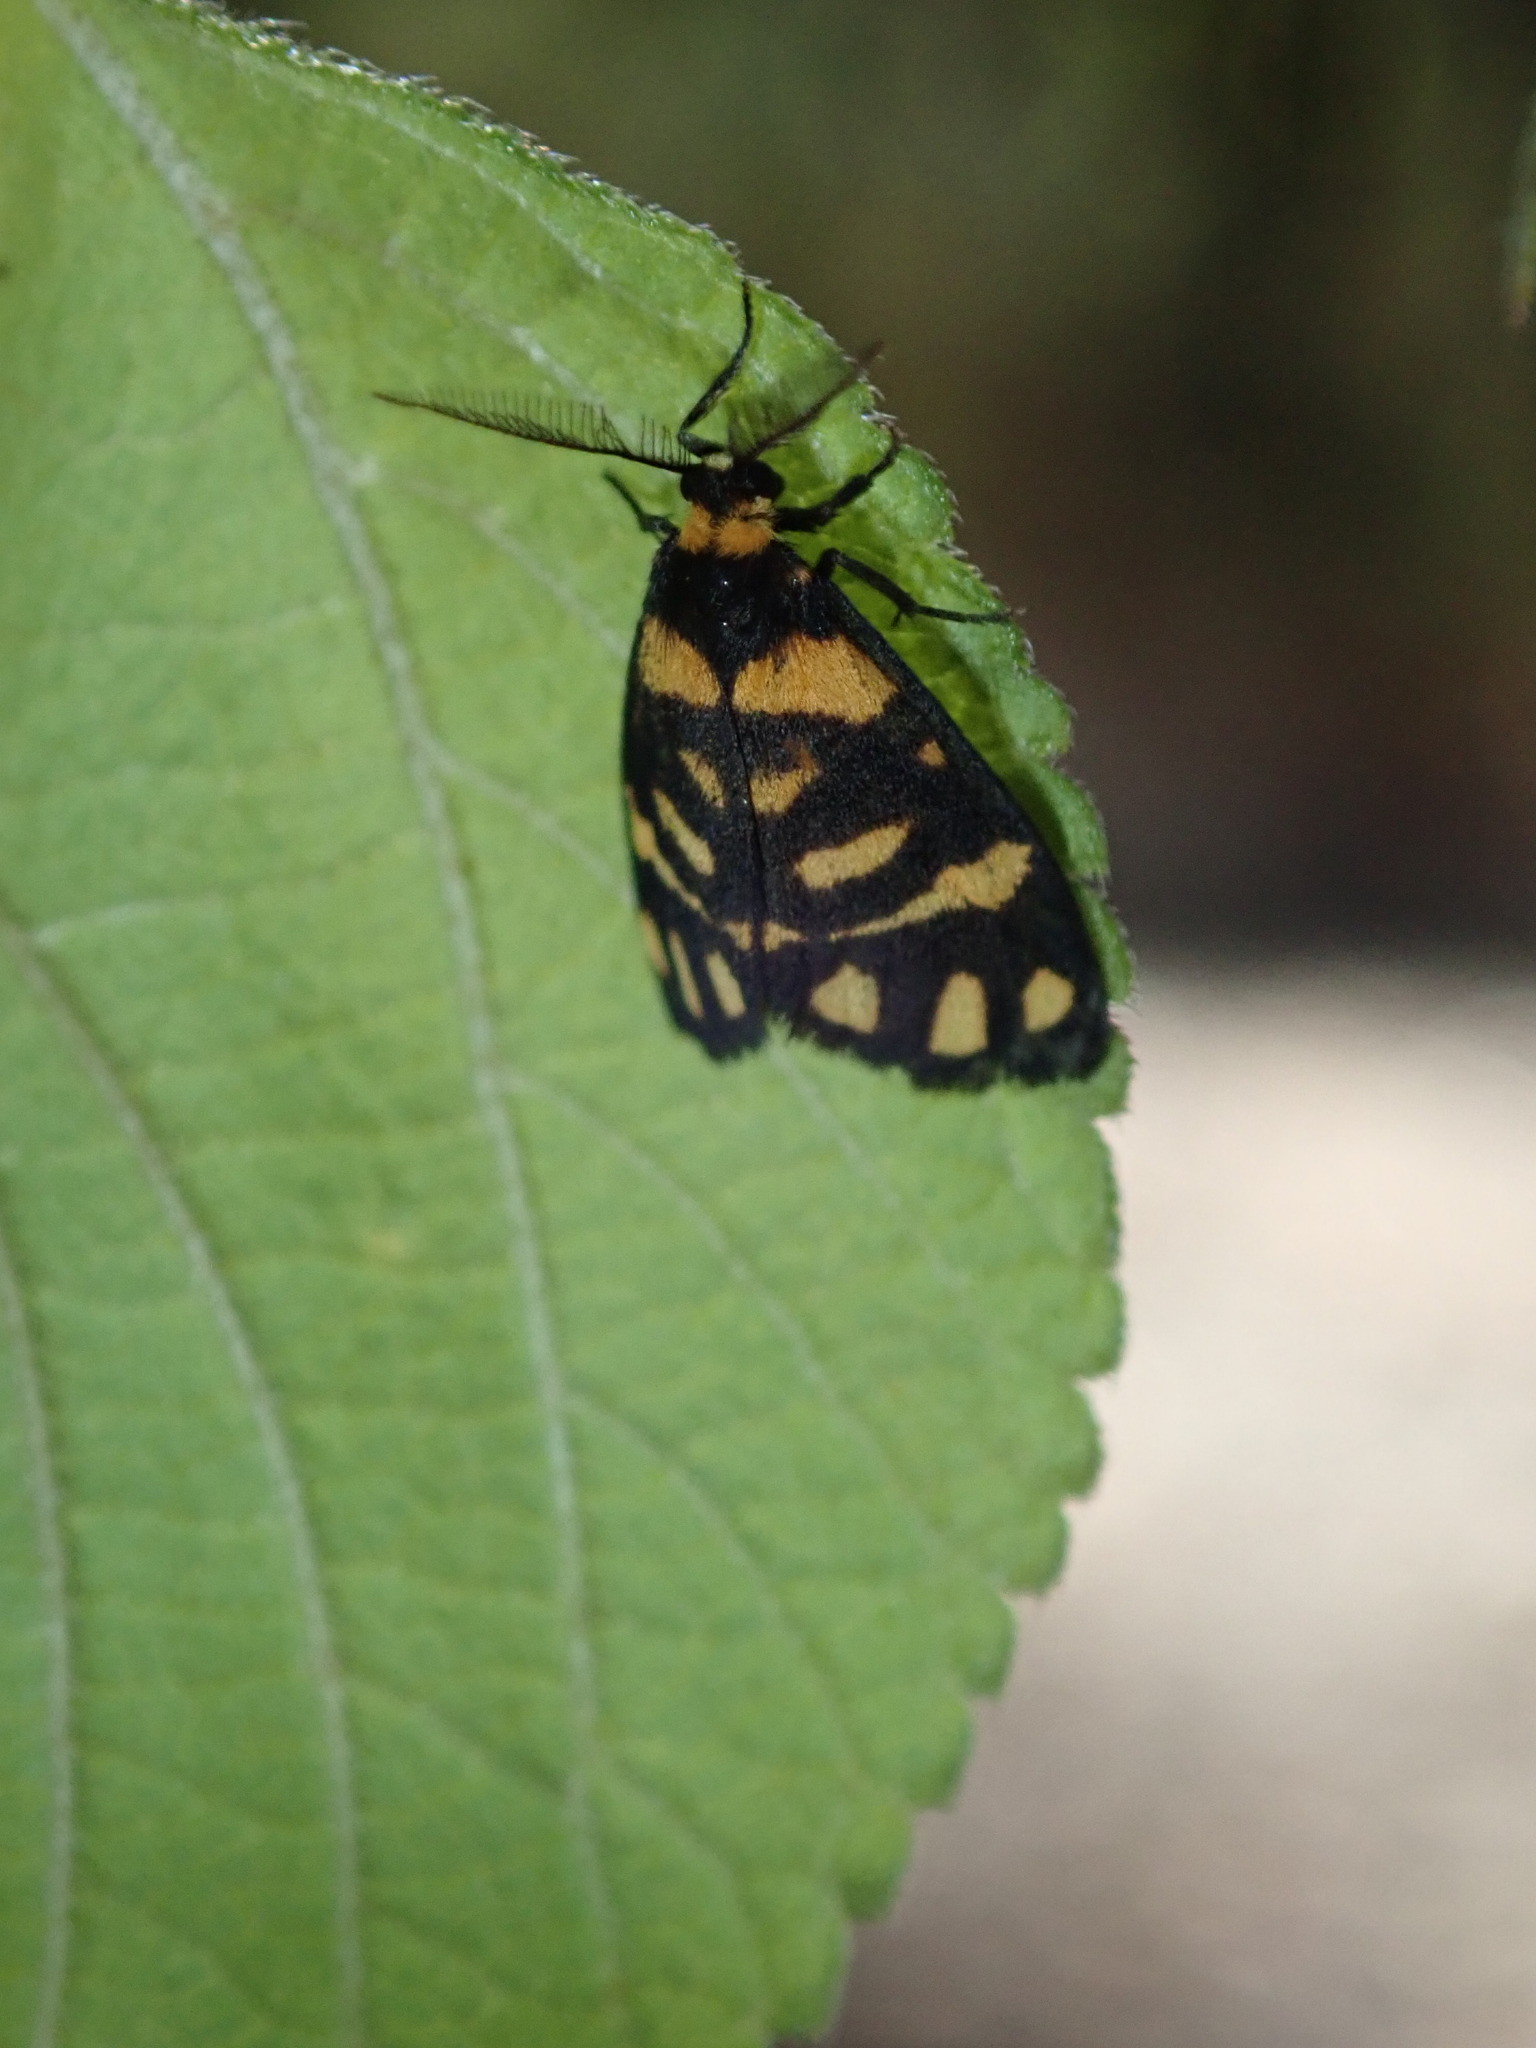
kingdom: Animalia
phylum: Arthropoda
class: Insecta
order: Lepidoptera
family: Erebidae
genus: Asura
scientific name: Asura lydia
